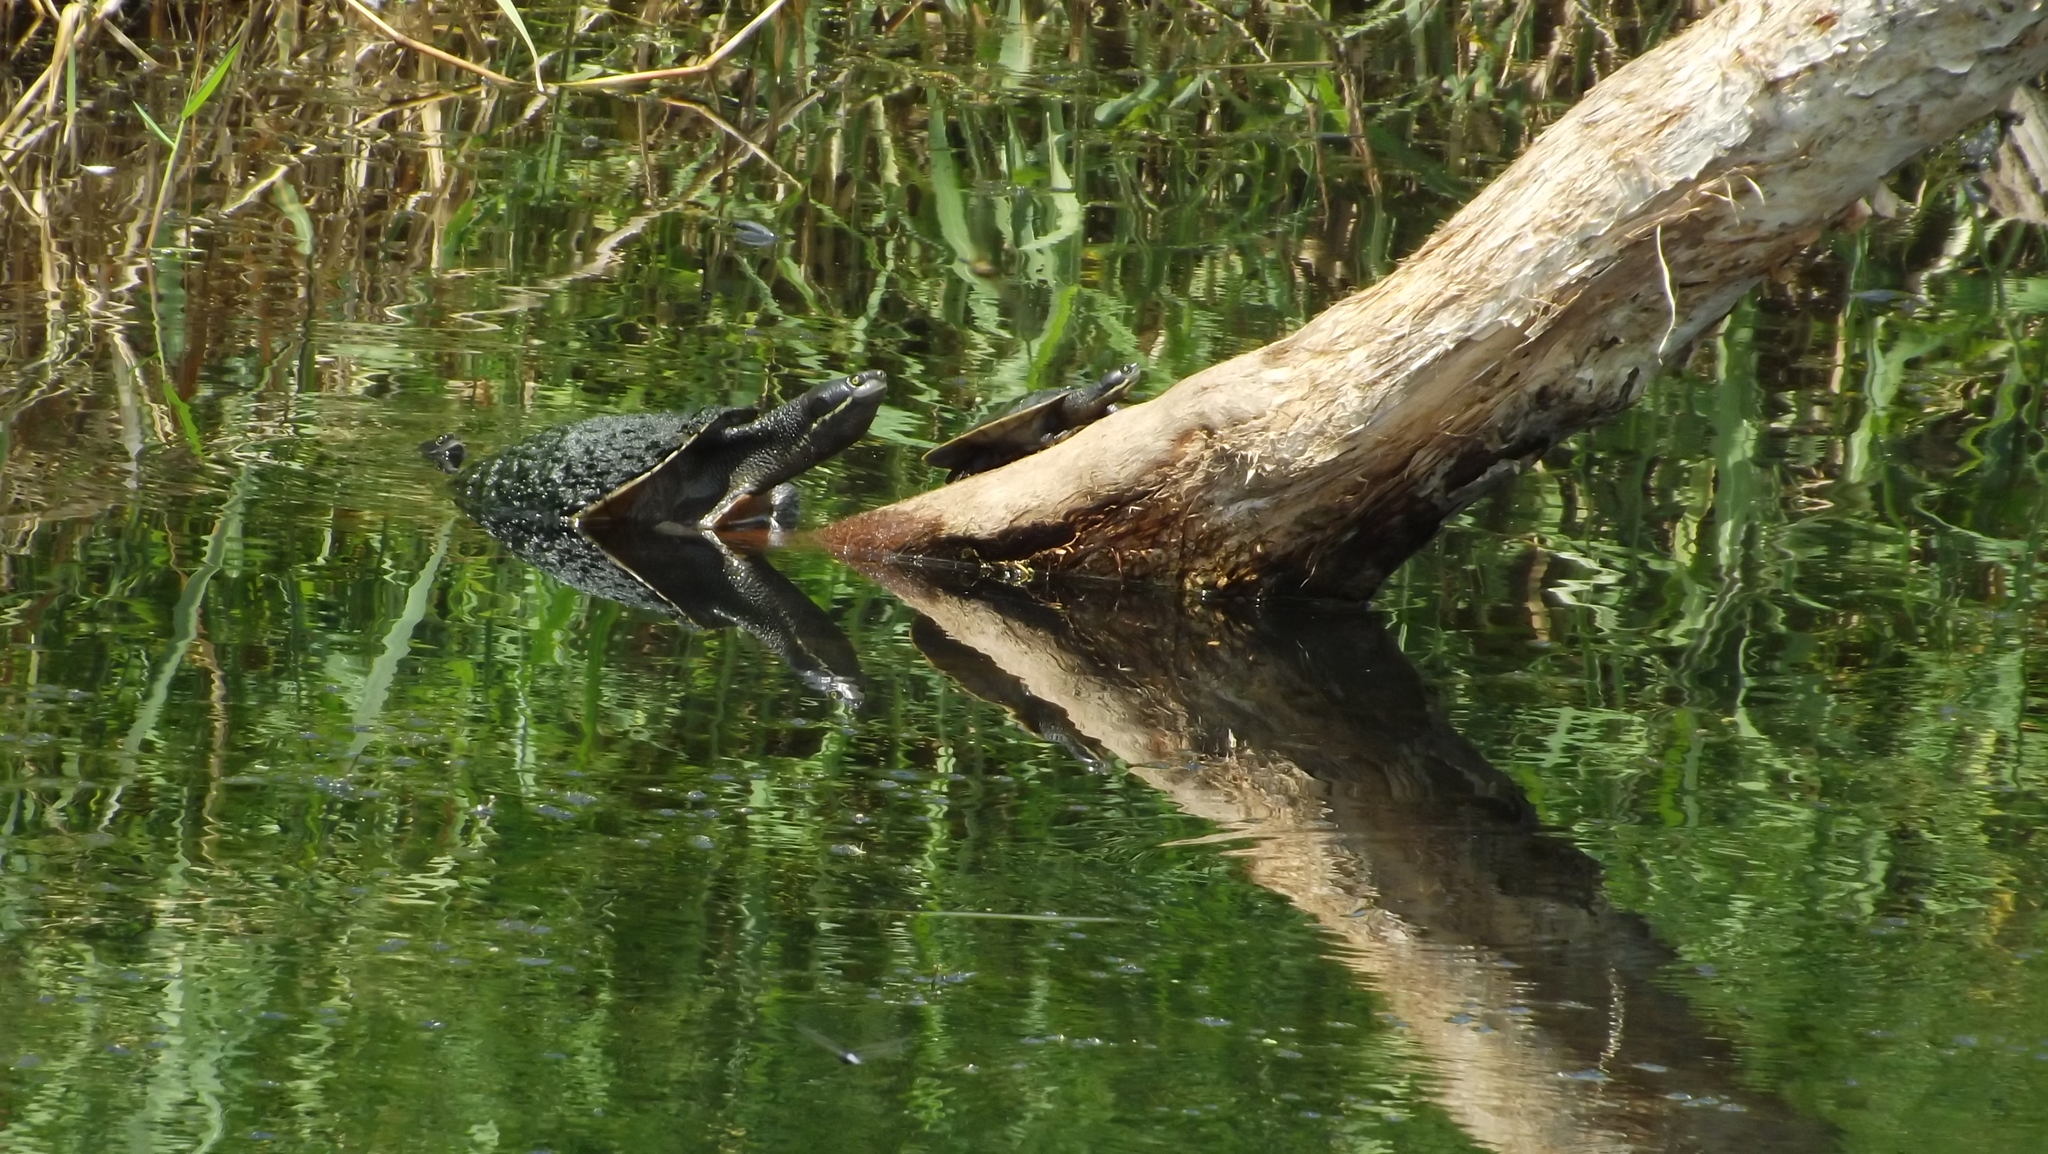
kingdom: Animalia
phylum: Chordata
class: Testudines
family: Chelidae
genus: Emydura
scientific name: Emydura macquarii
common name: Murray river turtle
